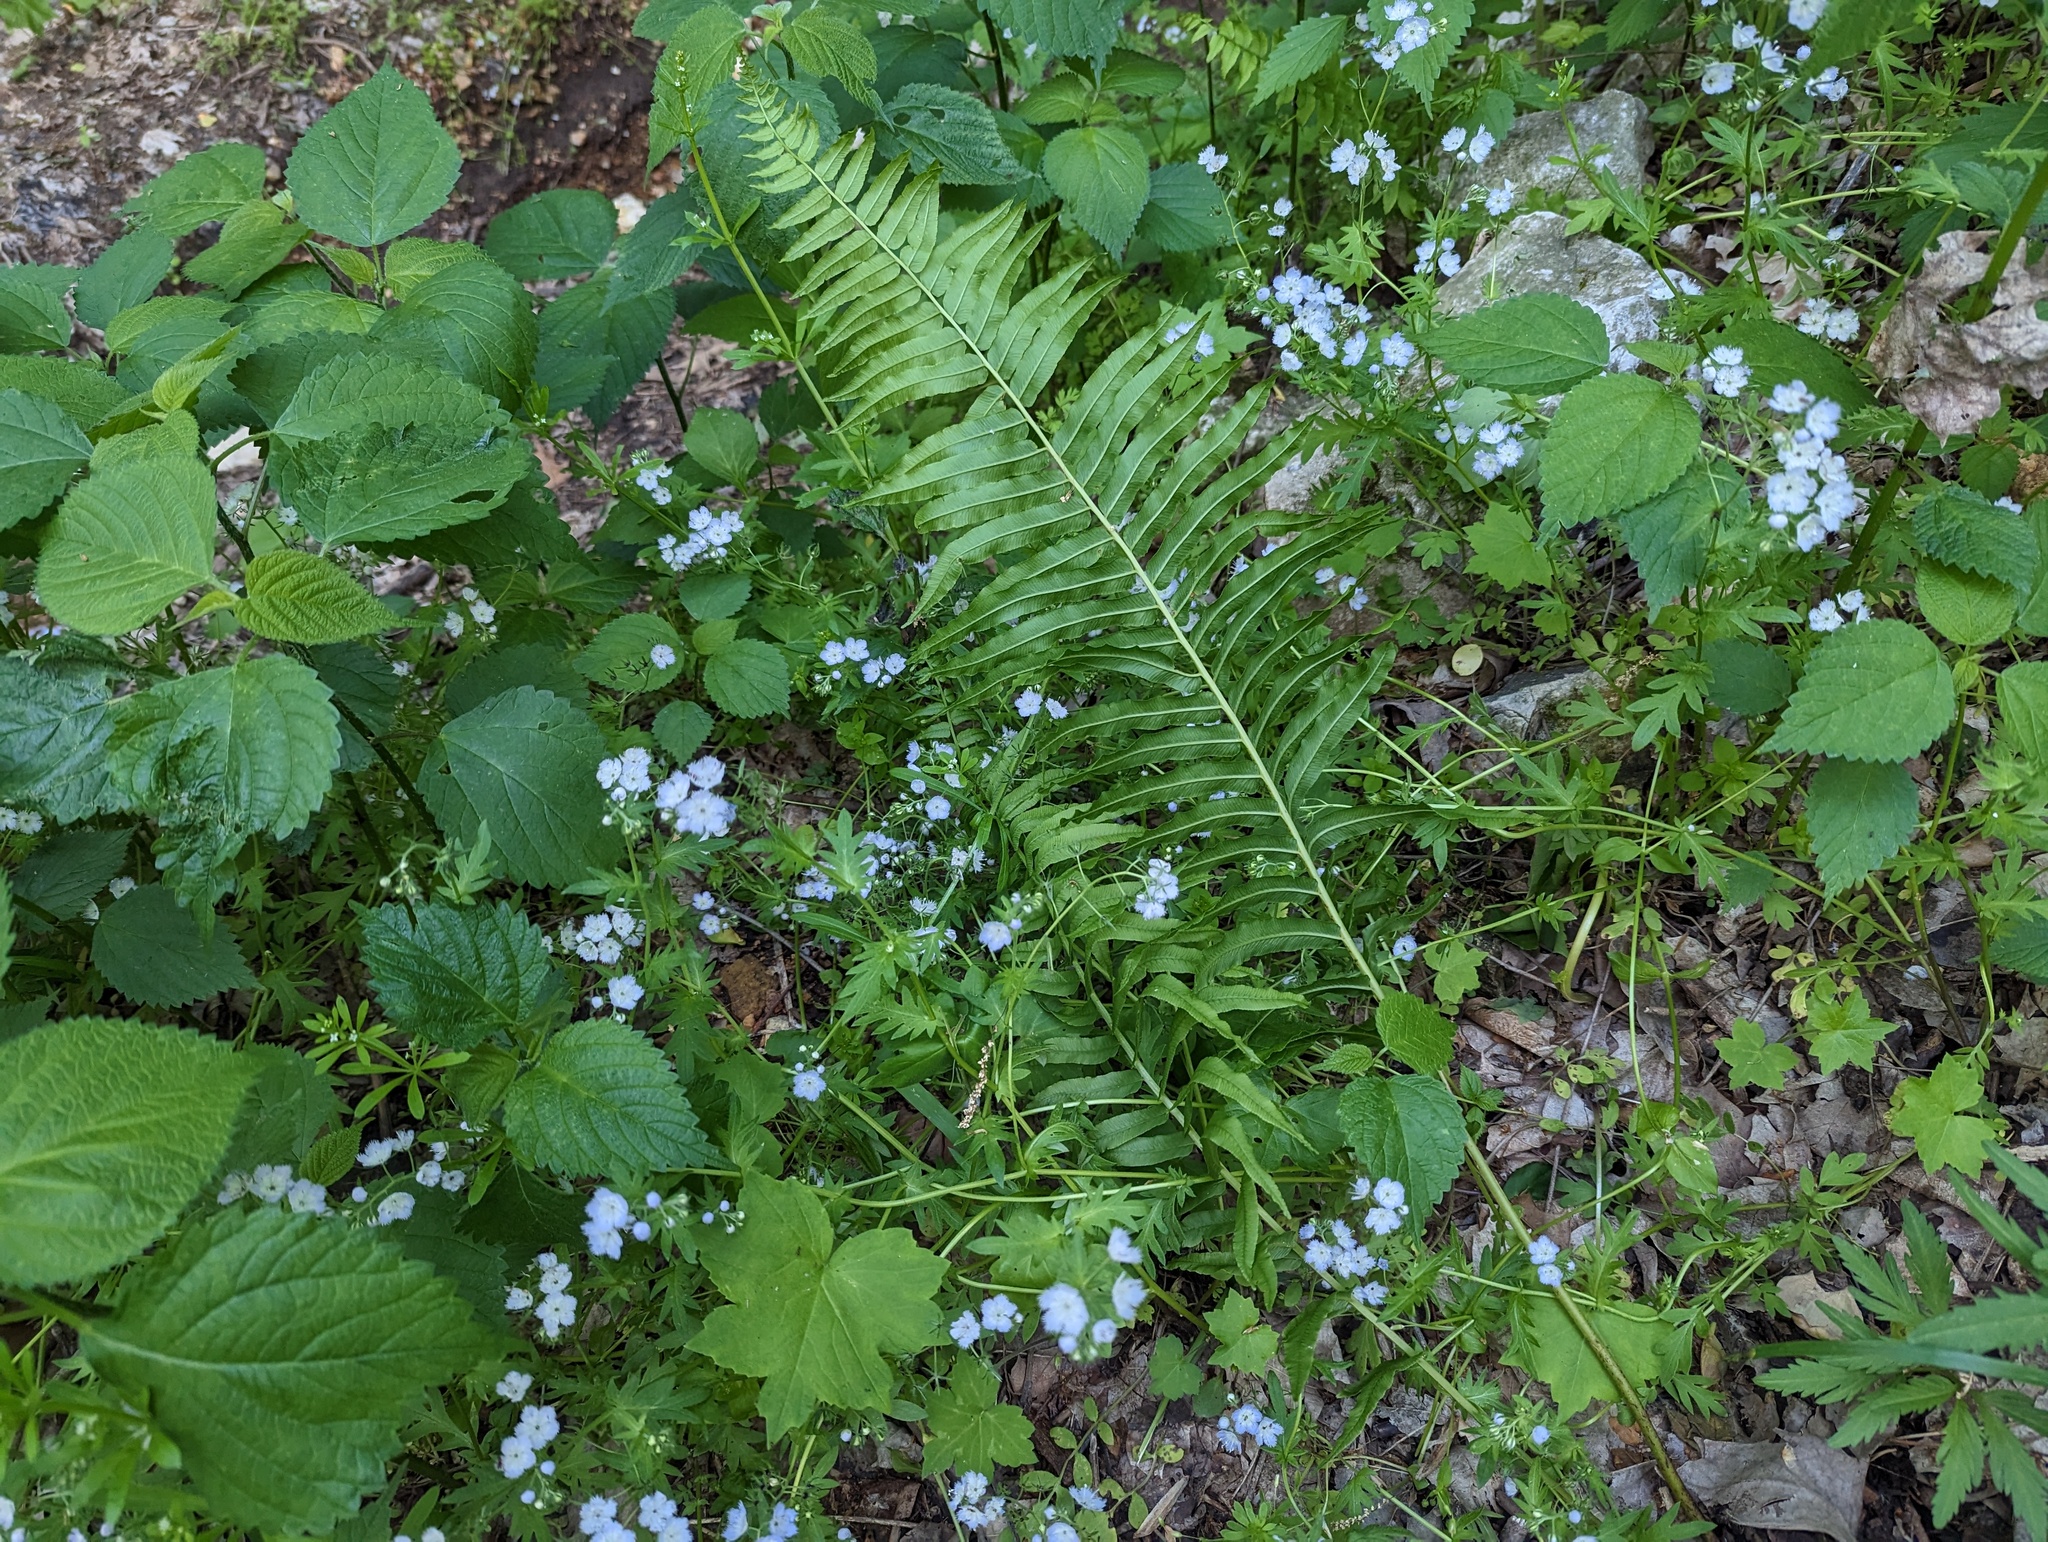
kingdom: Plantae
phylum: Tracheophyta
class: Polypodiopsida
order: Polypodiales
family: Diplaziopsidaceae
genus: Homalosorus
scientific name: Homalosorus pycnocarpos
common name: Glade fern
